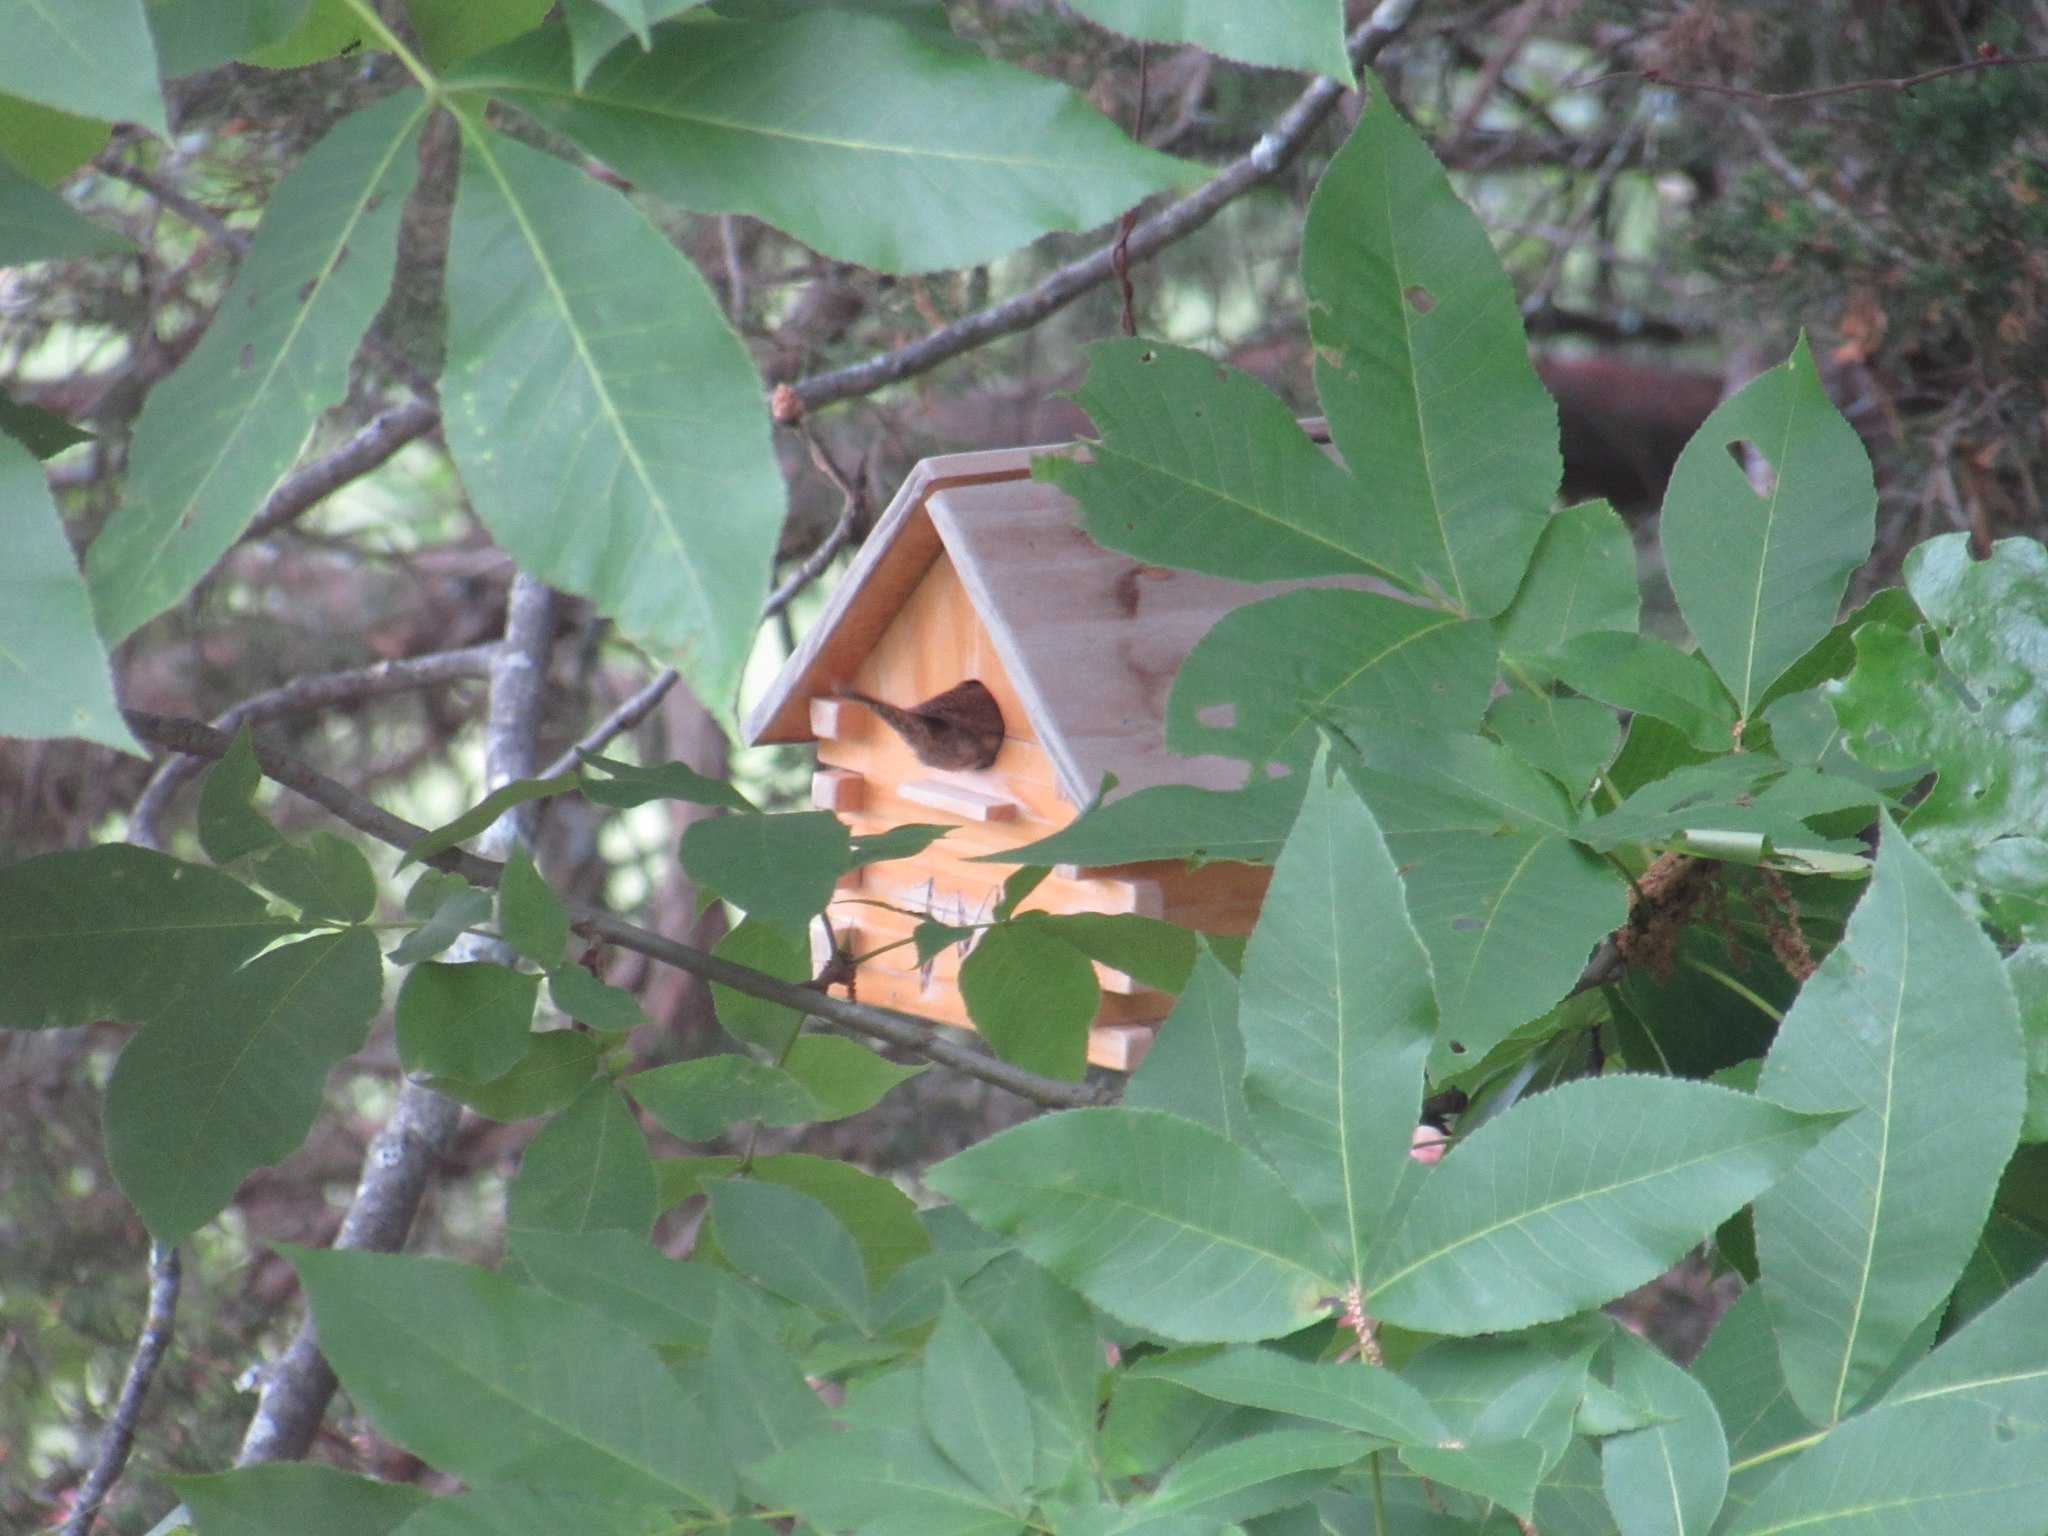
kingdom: Animalia
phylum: Chordata
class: Aves
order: Passeriformes
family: Troglodytidae
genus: Troglodytes
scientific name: Troglodytes aedon
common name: House wren
